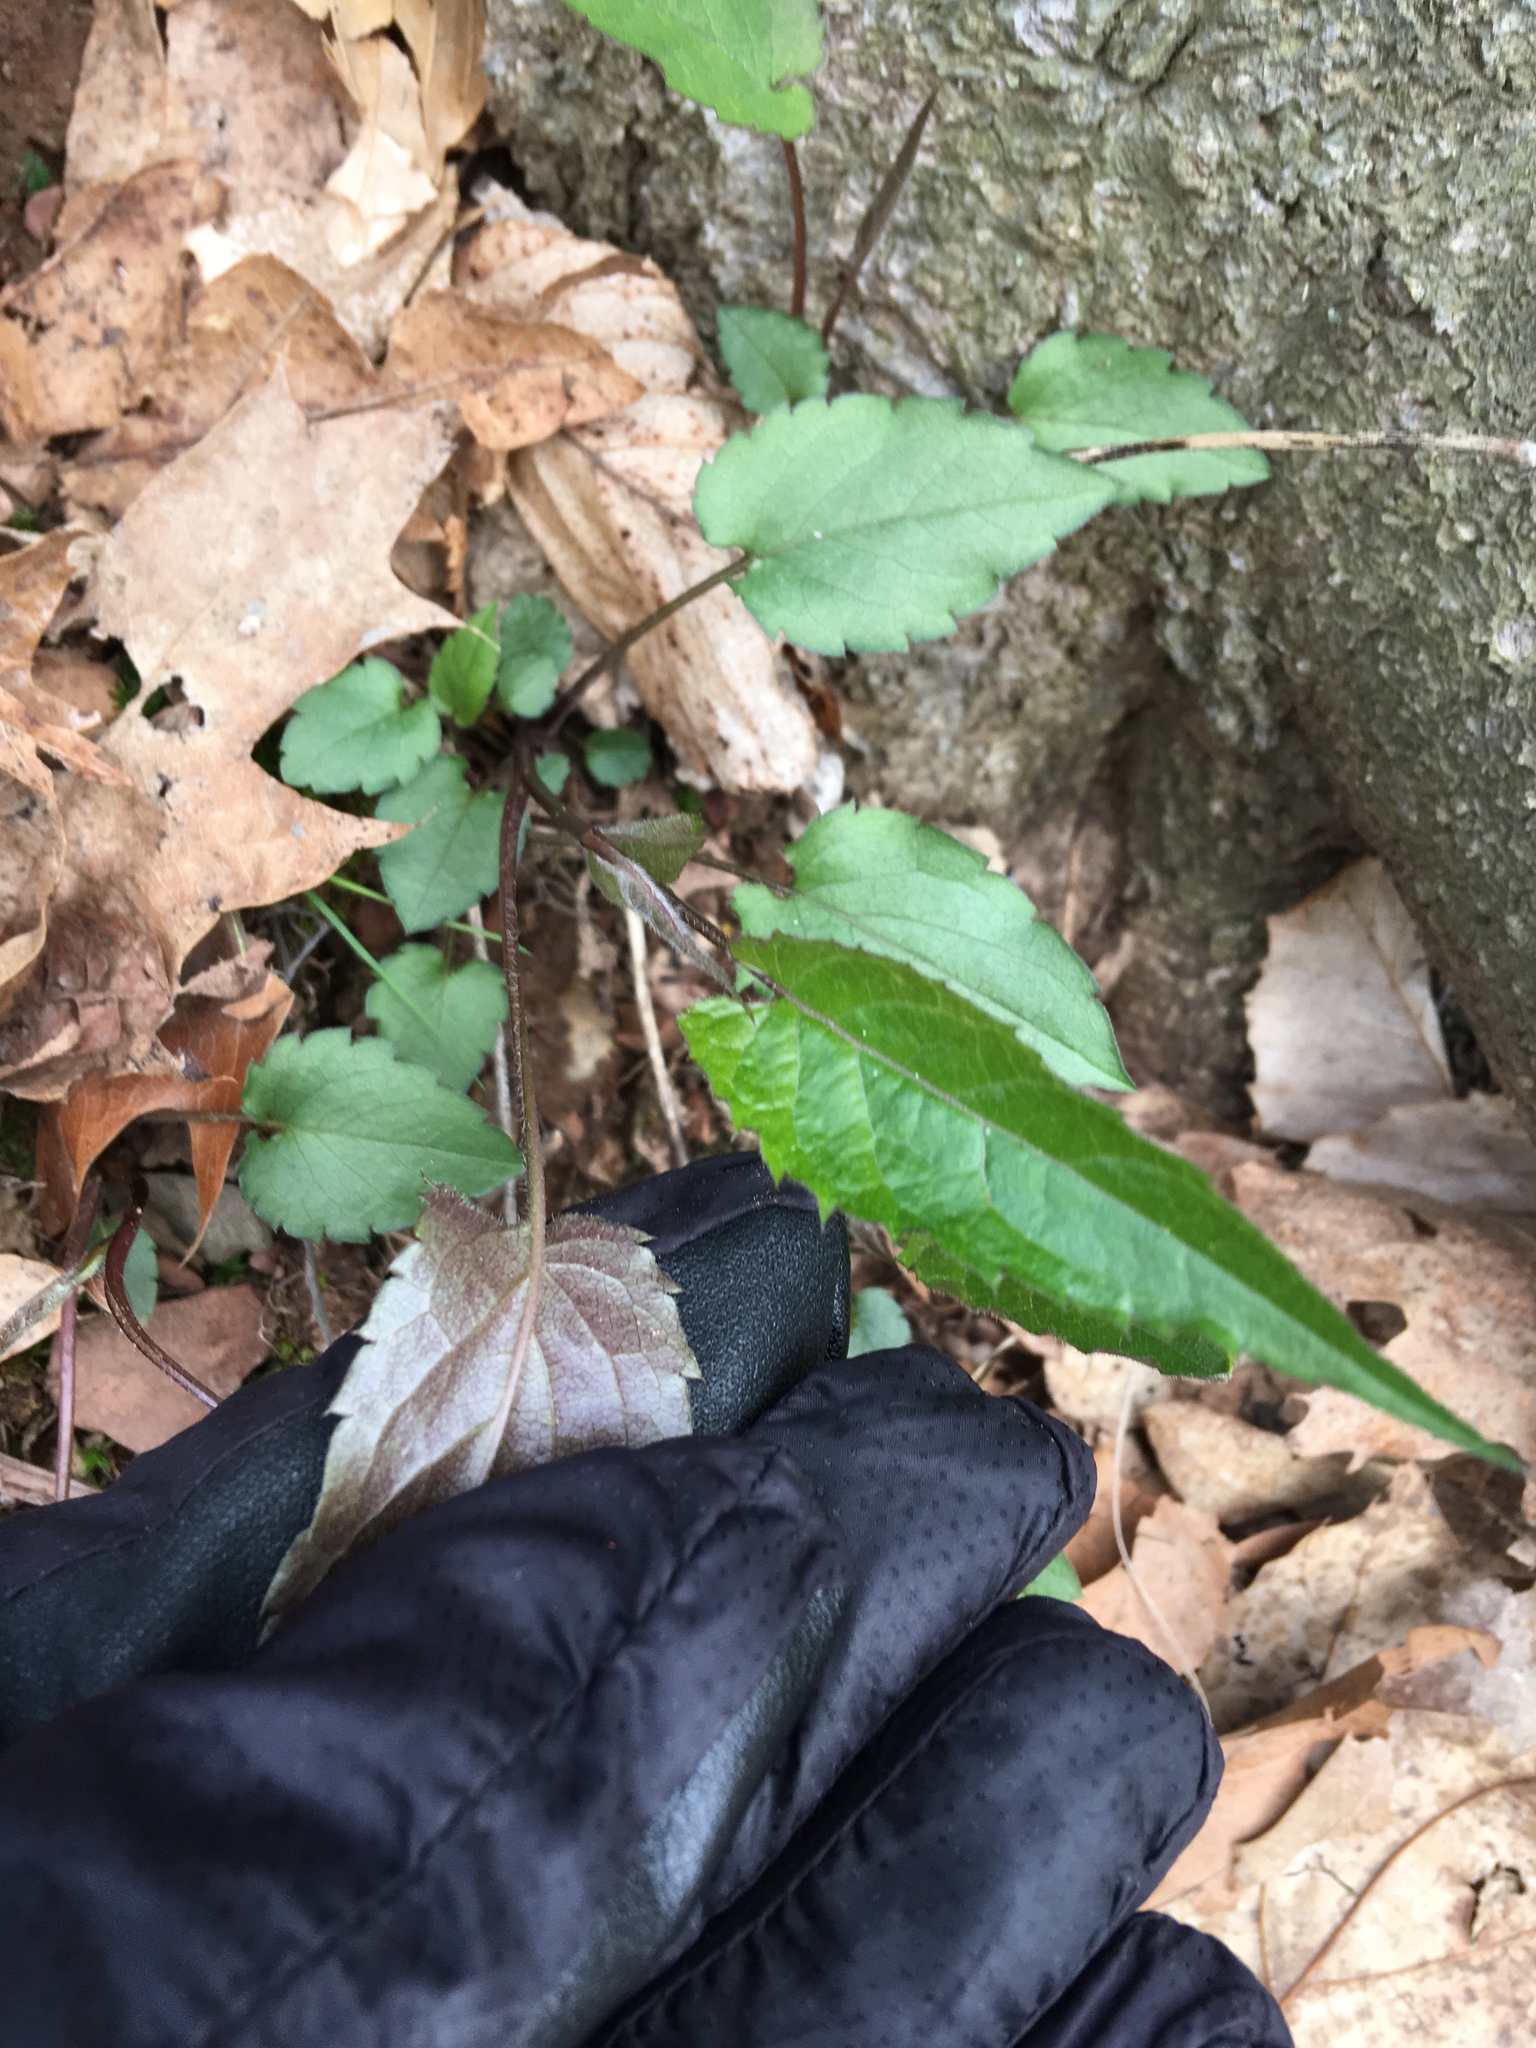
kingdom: Plantae
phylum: Tracheophyta
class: Magnoliopsida
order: Asterales
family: Asteraceae
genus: Eurybia
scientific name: Eurybia divaricata
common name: White wood aster
